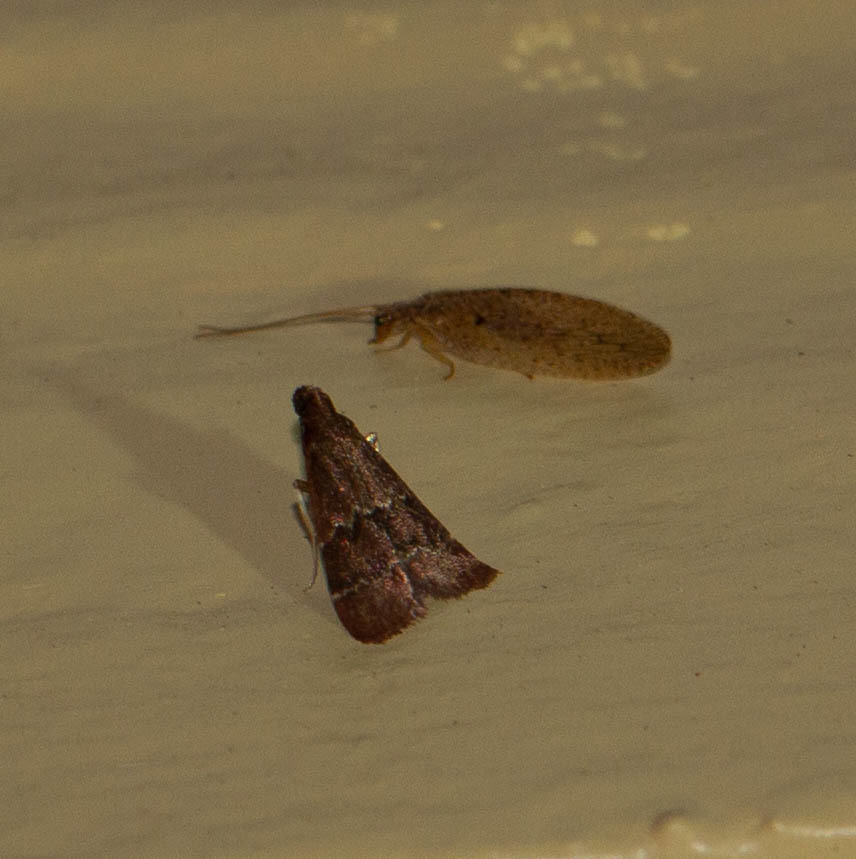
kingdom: Animalia
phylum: Arthropoda
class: Insecta
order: Lepidoptera
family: Pyralidae
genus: Arta
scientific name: Arta
